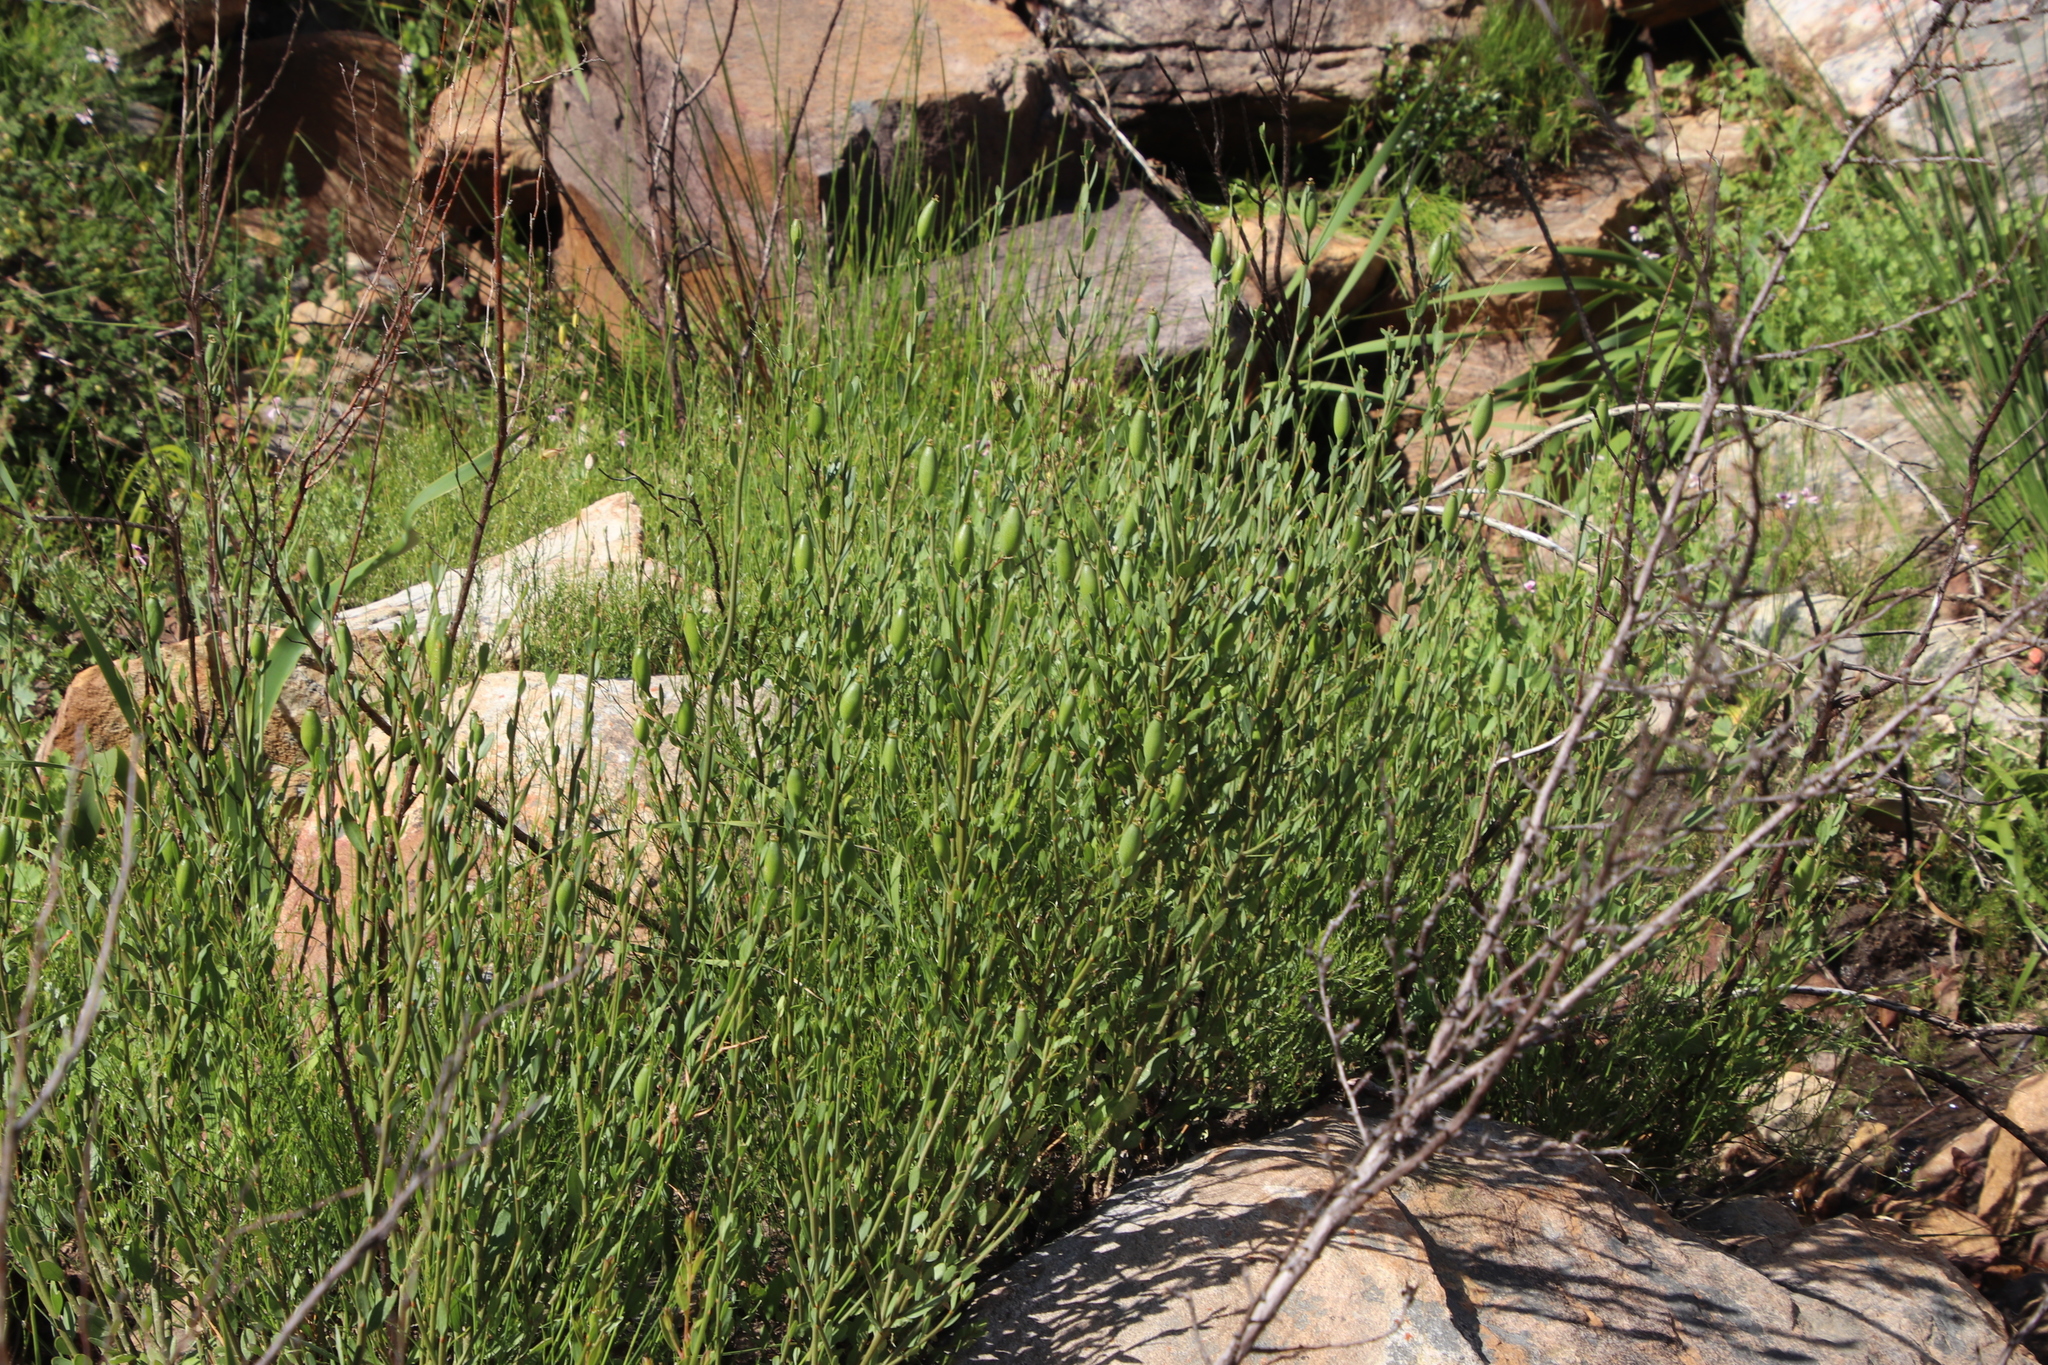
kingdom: Plantae
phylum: Tracheophyta
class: Magnoliopsida
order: Solanales
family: Montiniaceae
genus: Montinia
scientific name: Montinia caryophyllacea
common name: Wild clove-bush
